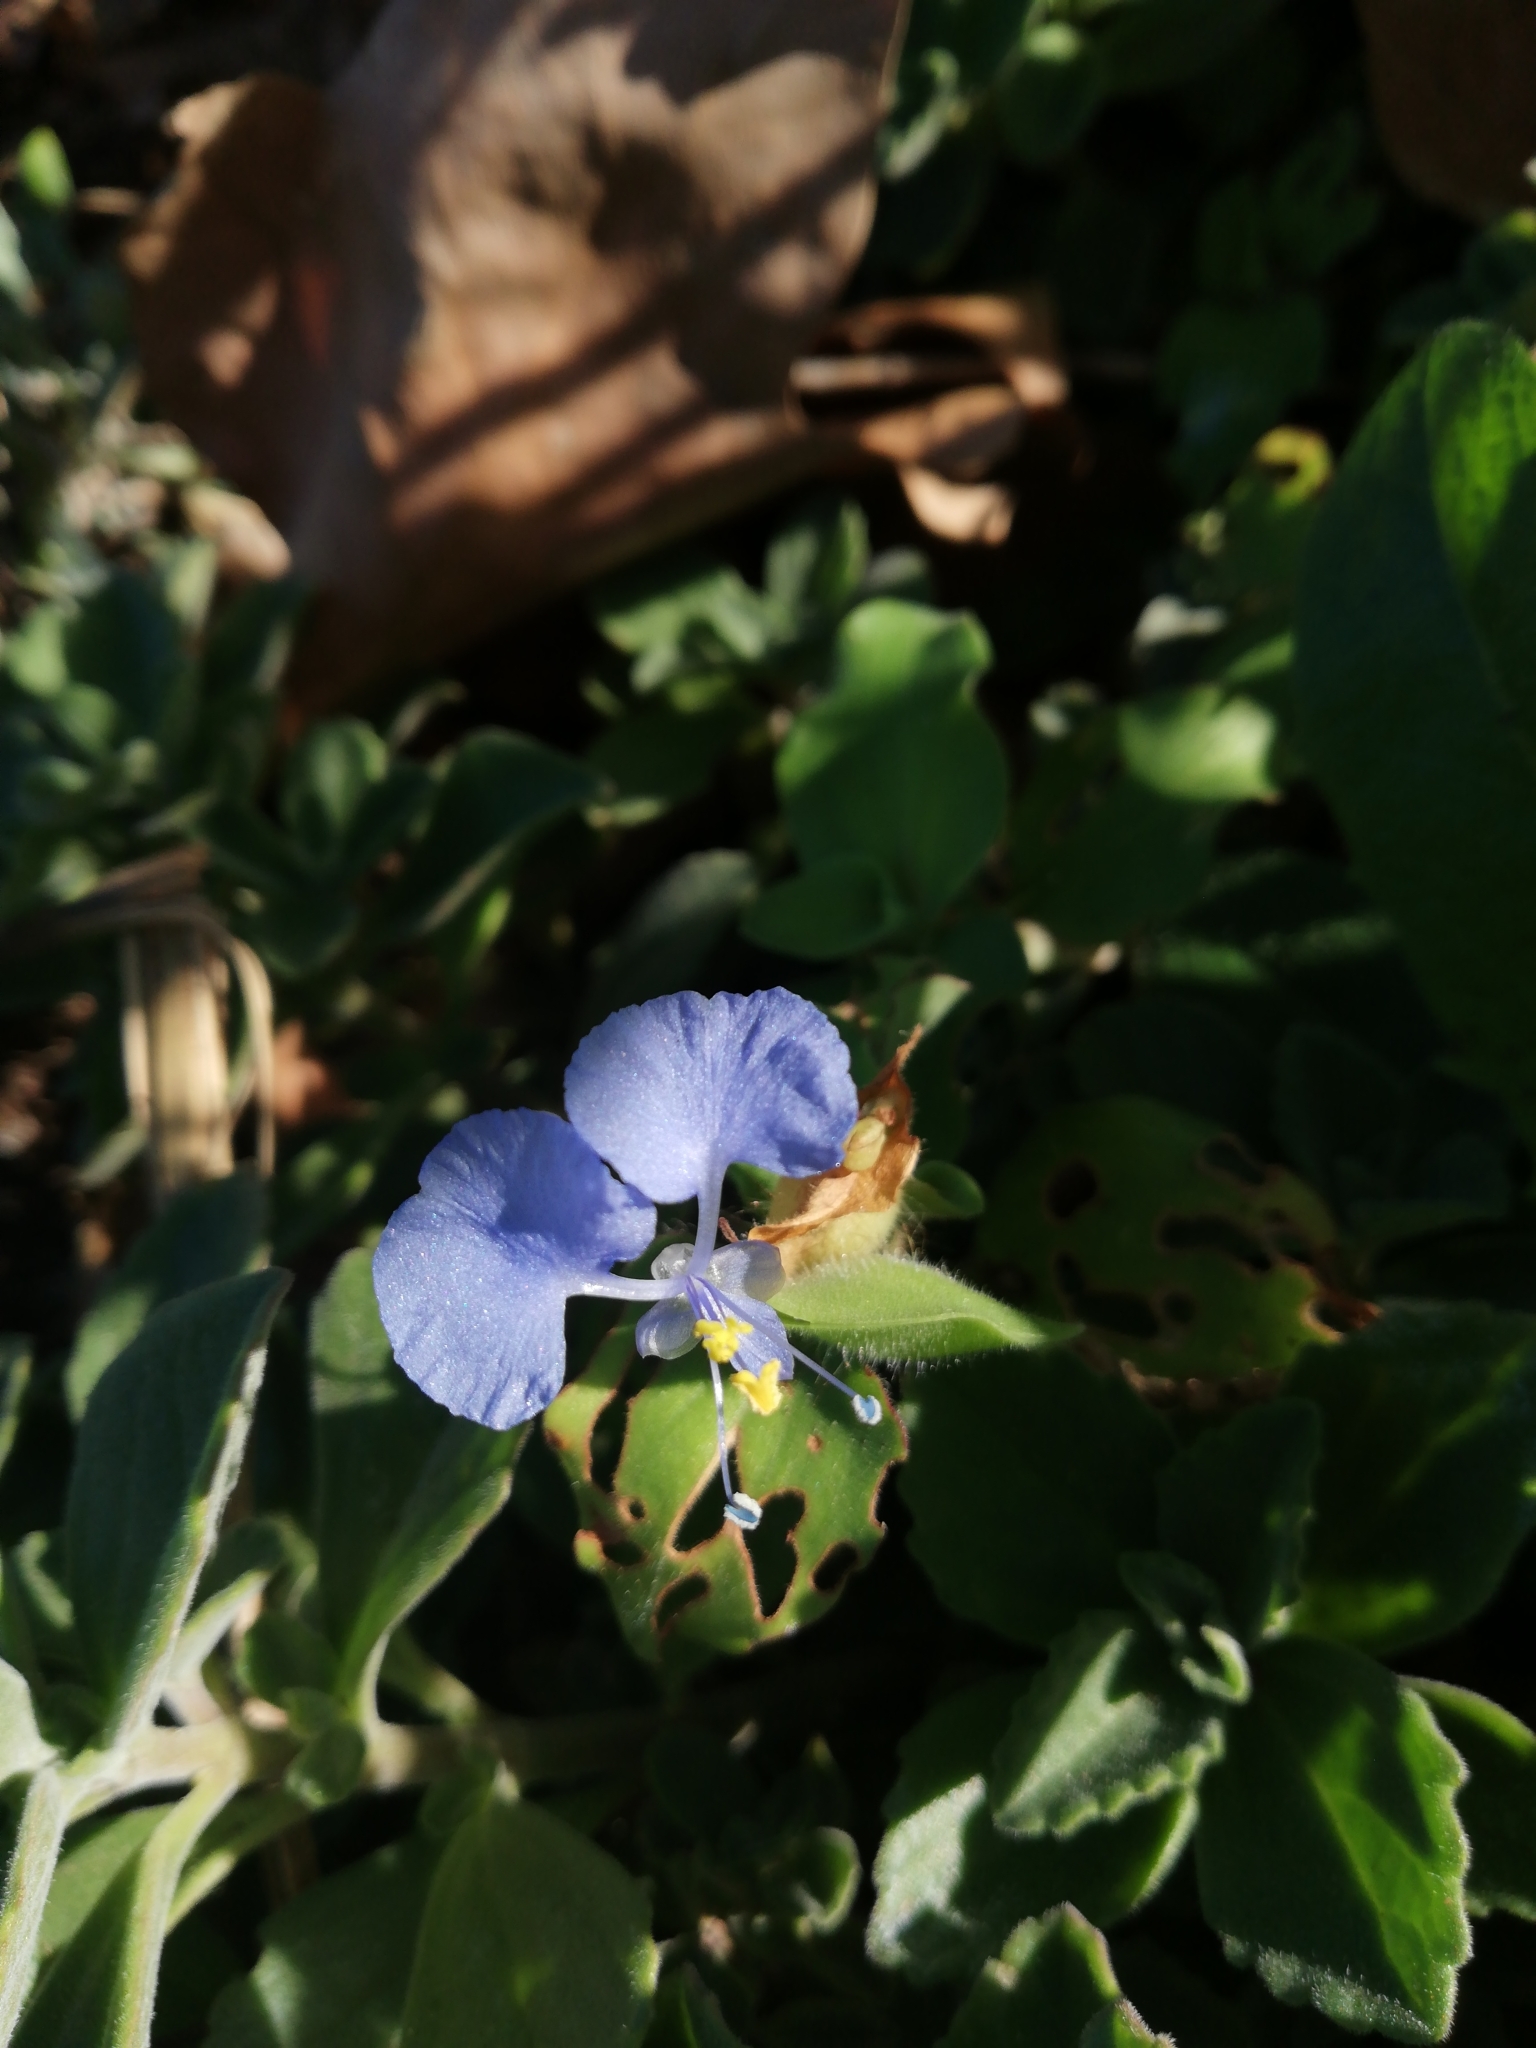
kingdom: Plantae
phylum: Tracheophyta
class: Liliopsida
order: Commelinales
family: Commelinaceae
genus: Commelina
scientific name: Commelina benghalensis
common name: Jio
